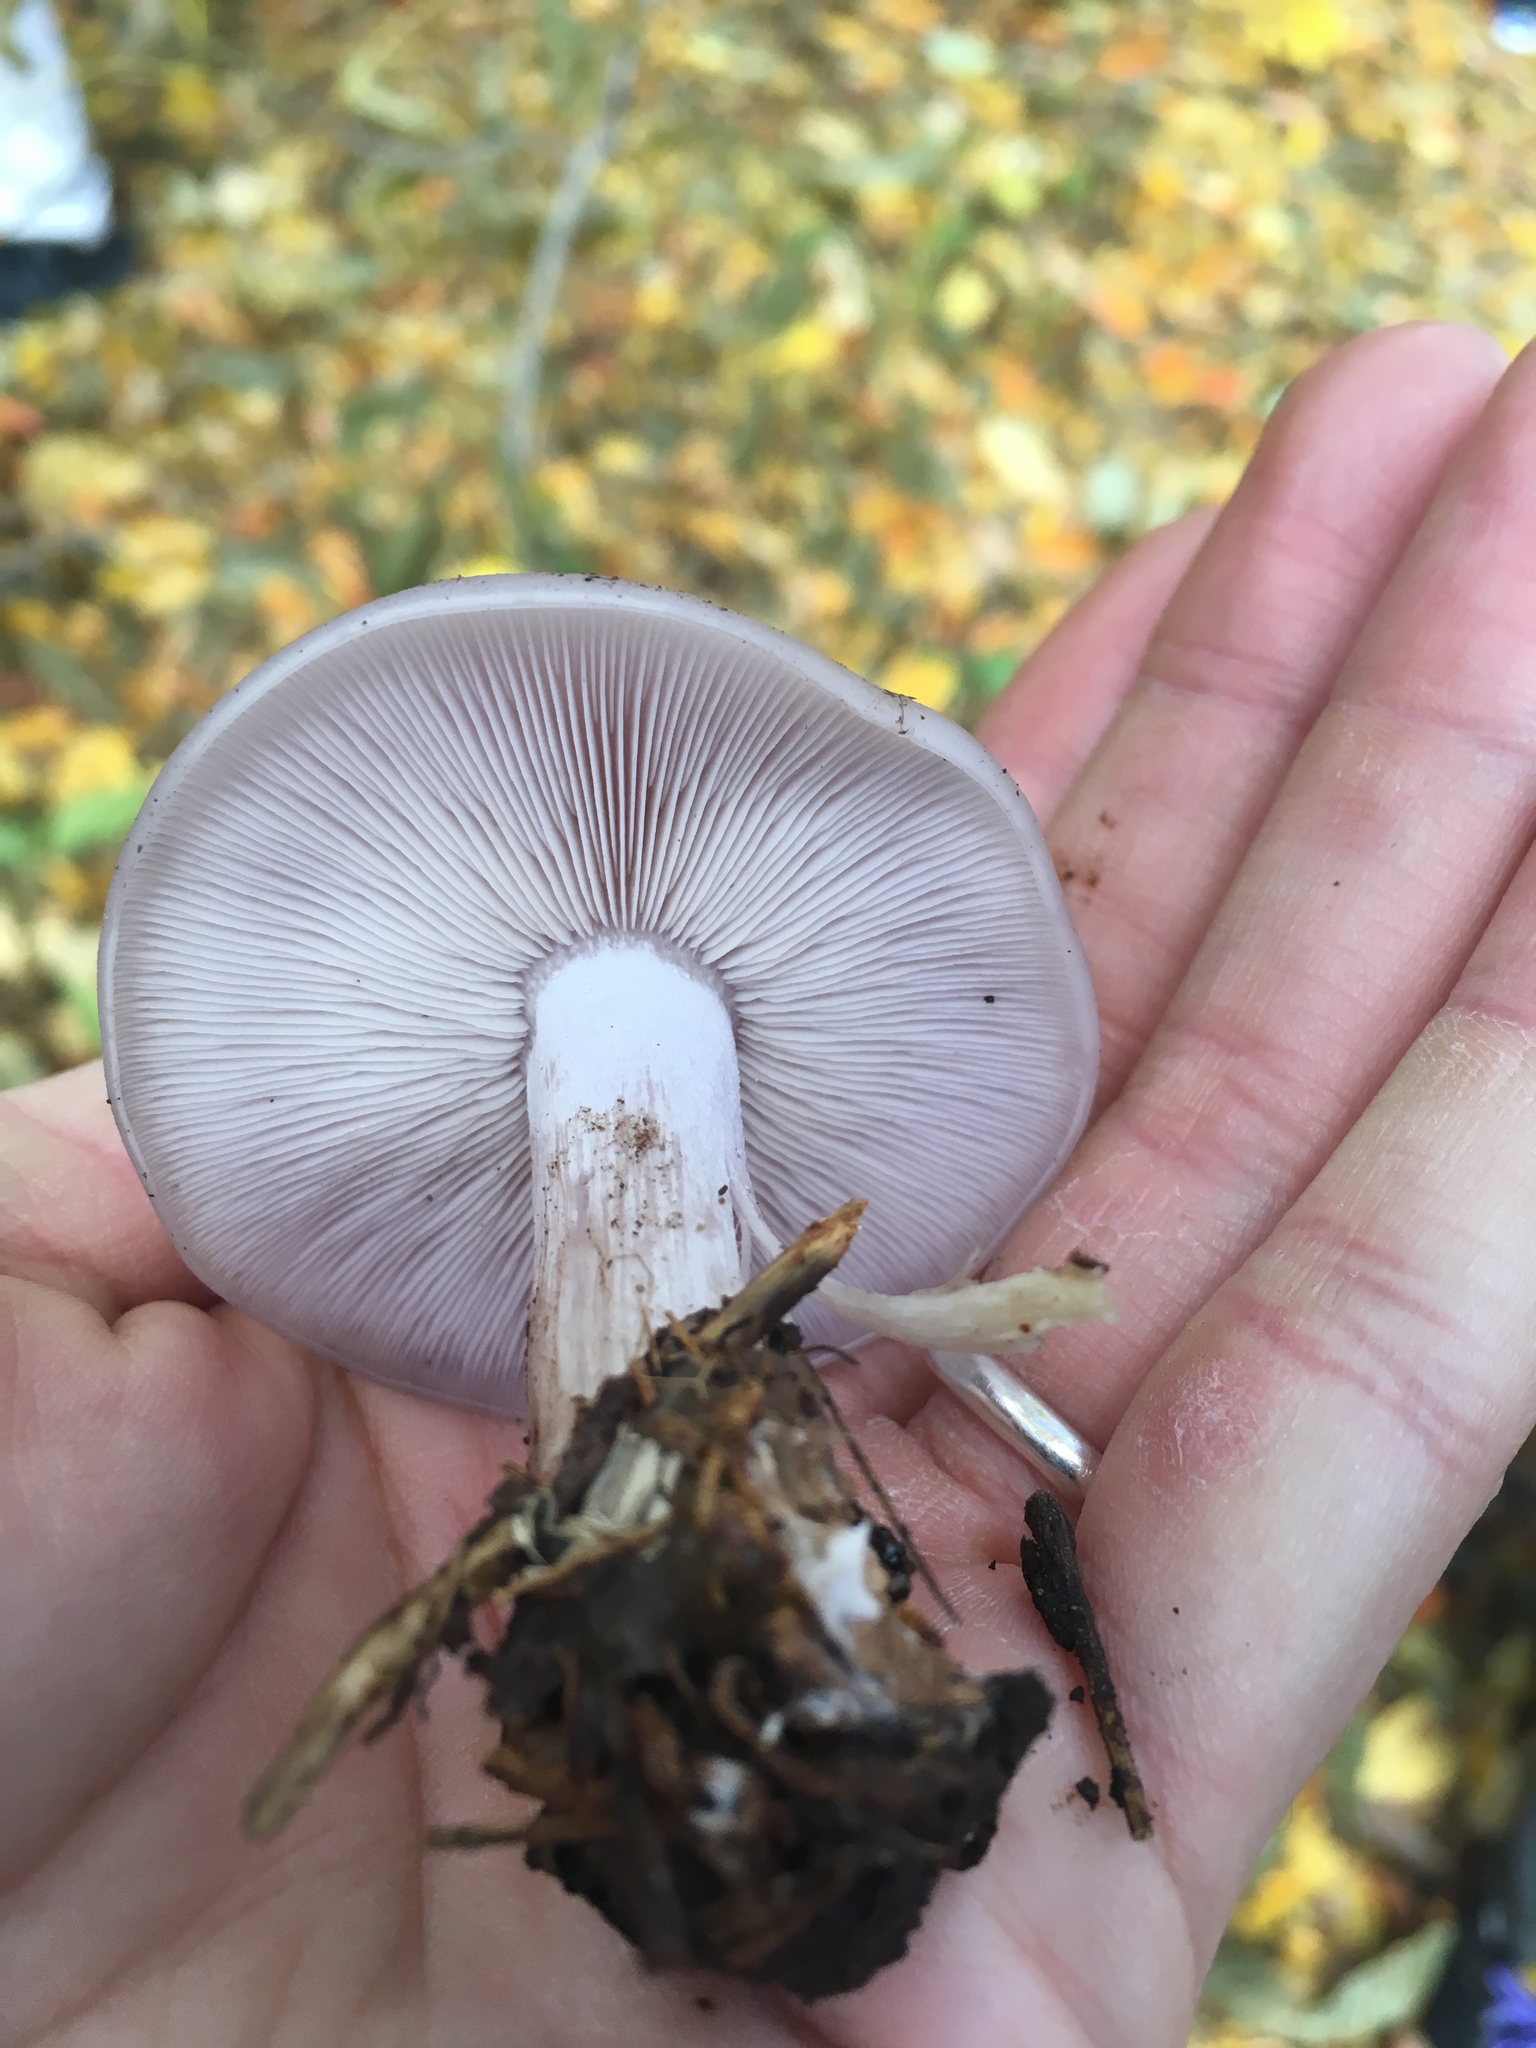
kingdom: Fungi
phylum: Basidiomycota
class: Agaricomycetes
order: Agaricales
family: Tricholomataceae
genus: Collybia
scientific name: Collybia
